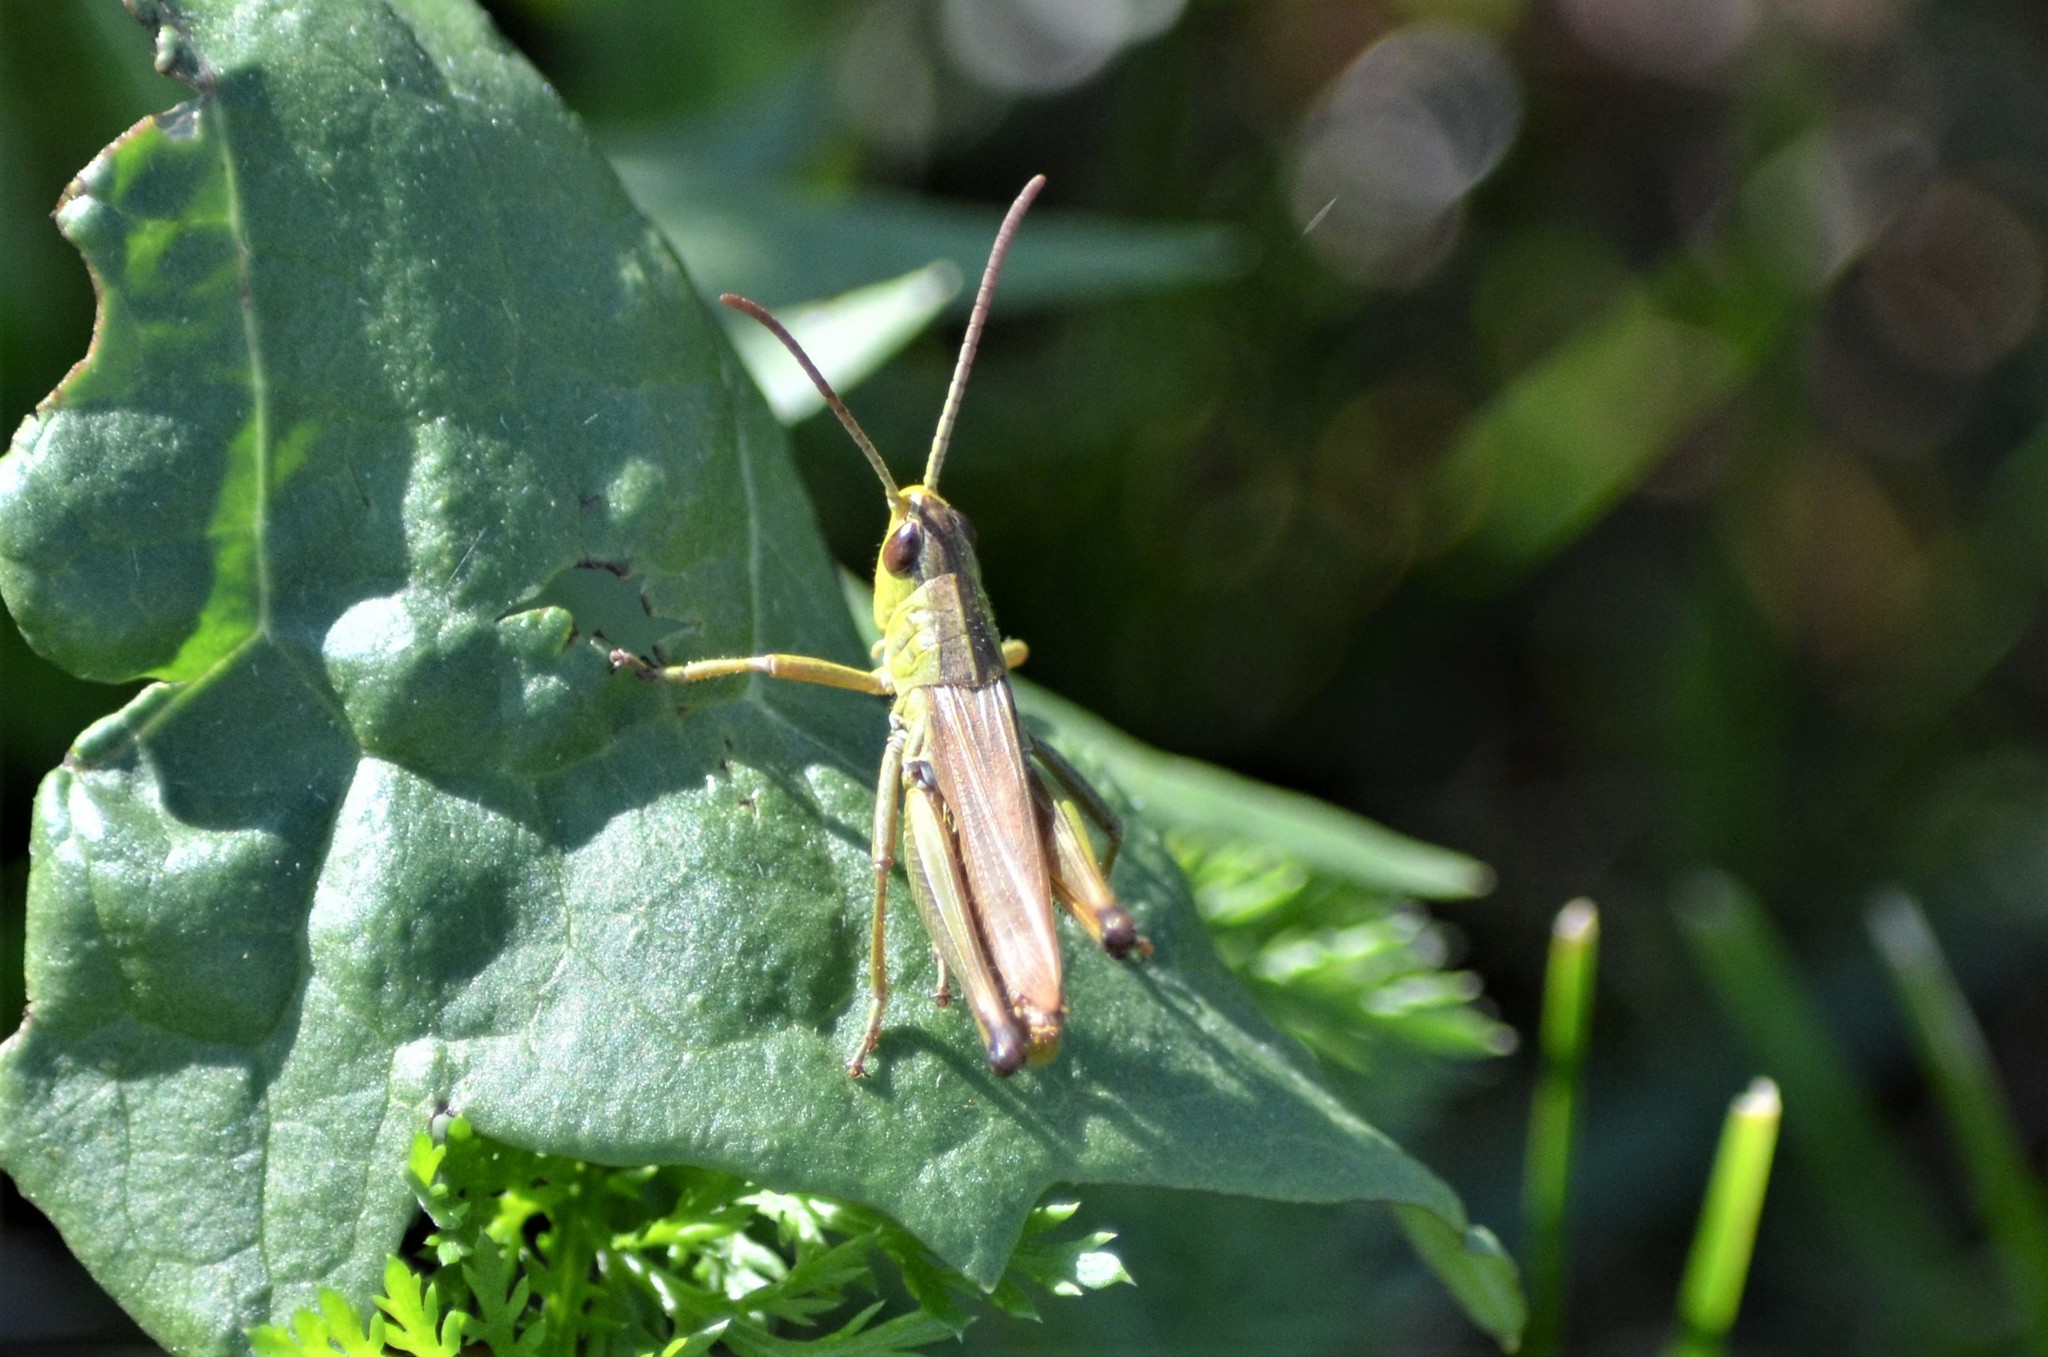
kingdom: Animalia
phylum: Arthropoda
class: Insecta
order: Orthoptera
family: Acrididae
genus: Pseudochorthippus
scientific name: Pseudochorthippus parallelus
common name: Meadow grasshopper
